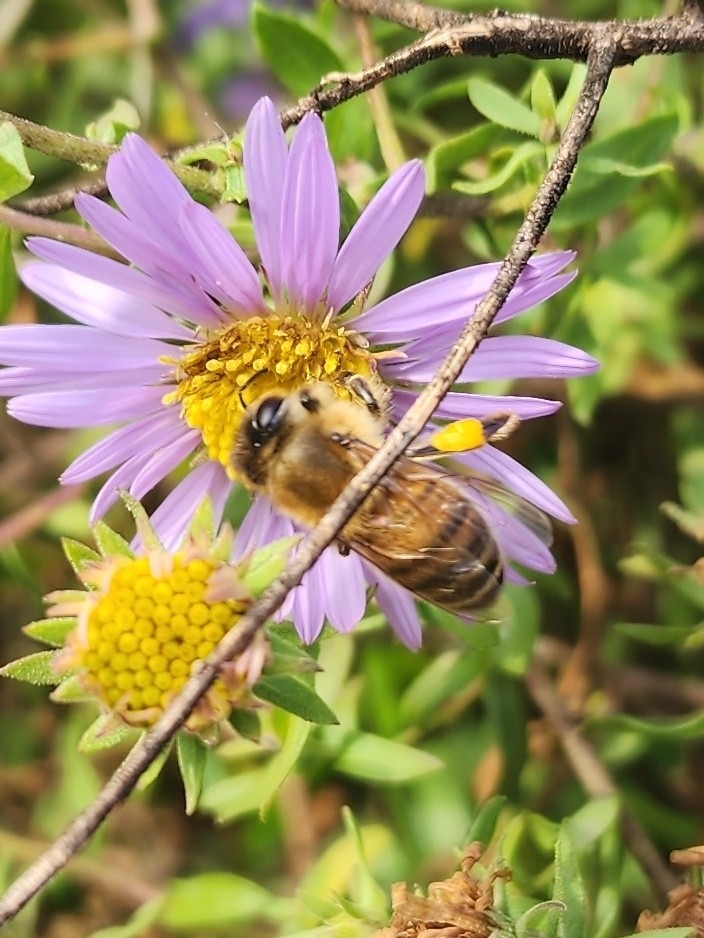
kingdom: Animalia
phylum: Arthropoda
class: Insecta
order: Hymenoptera
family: Apidae
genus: Apis
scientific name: Apis mellifera
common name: Honey bee
